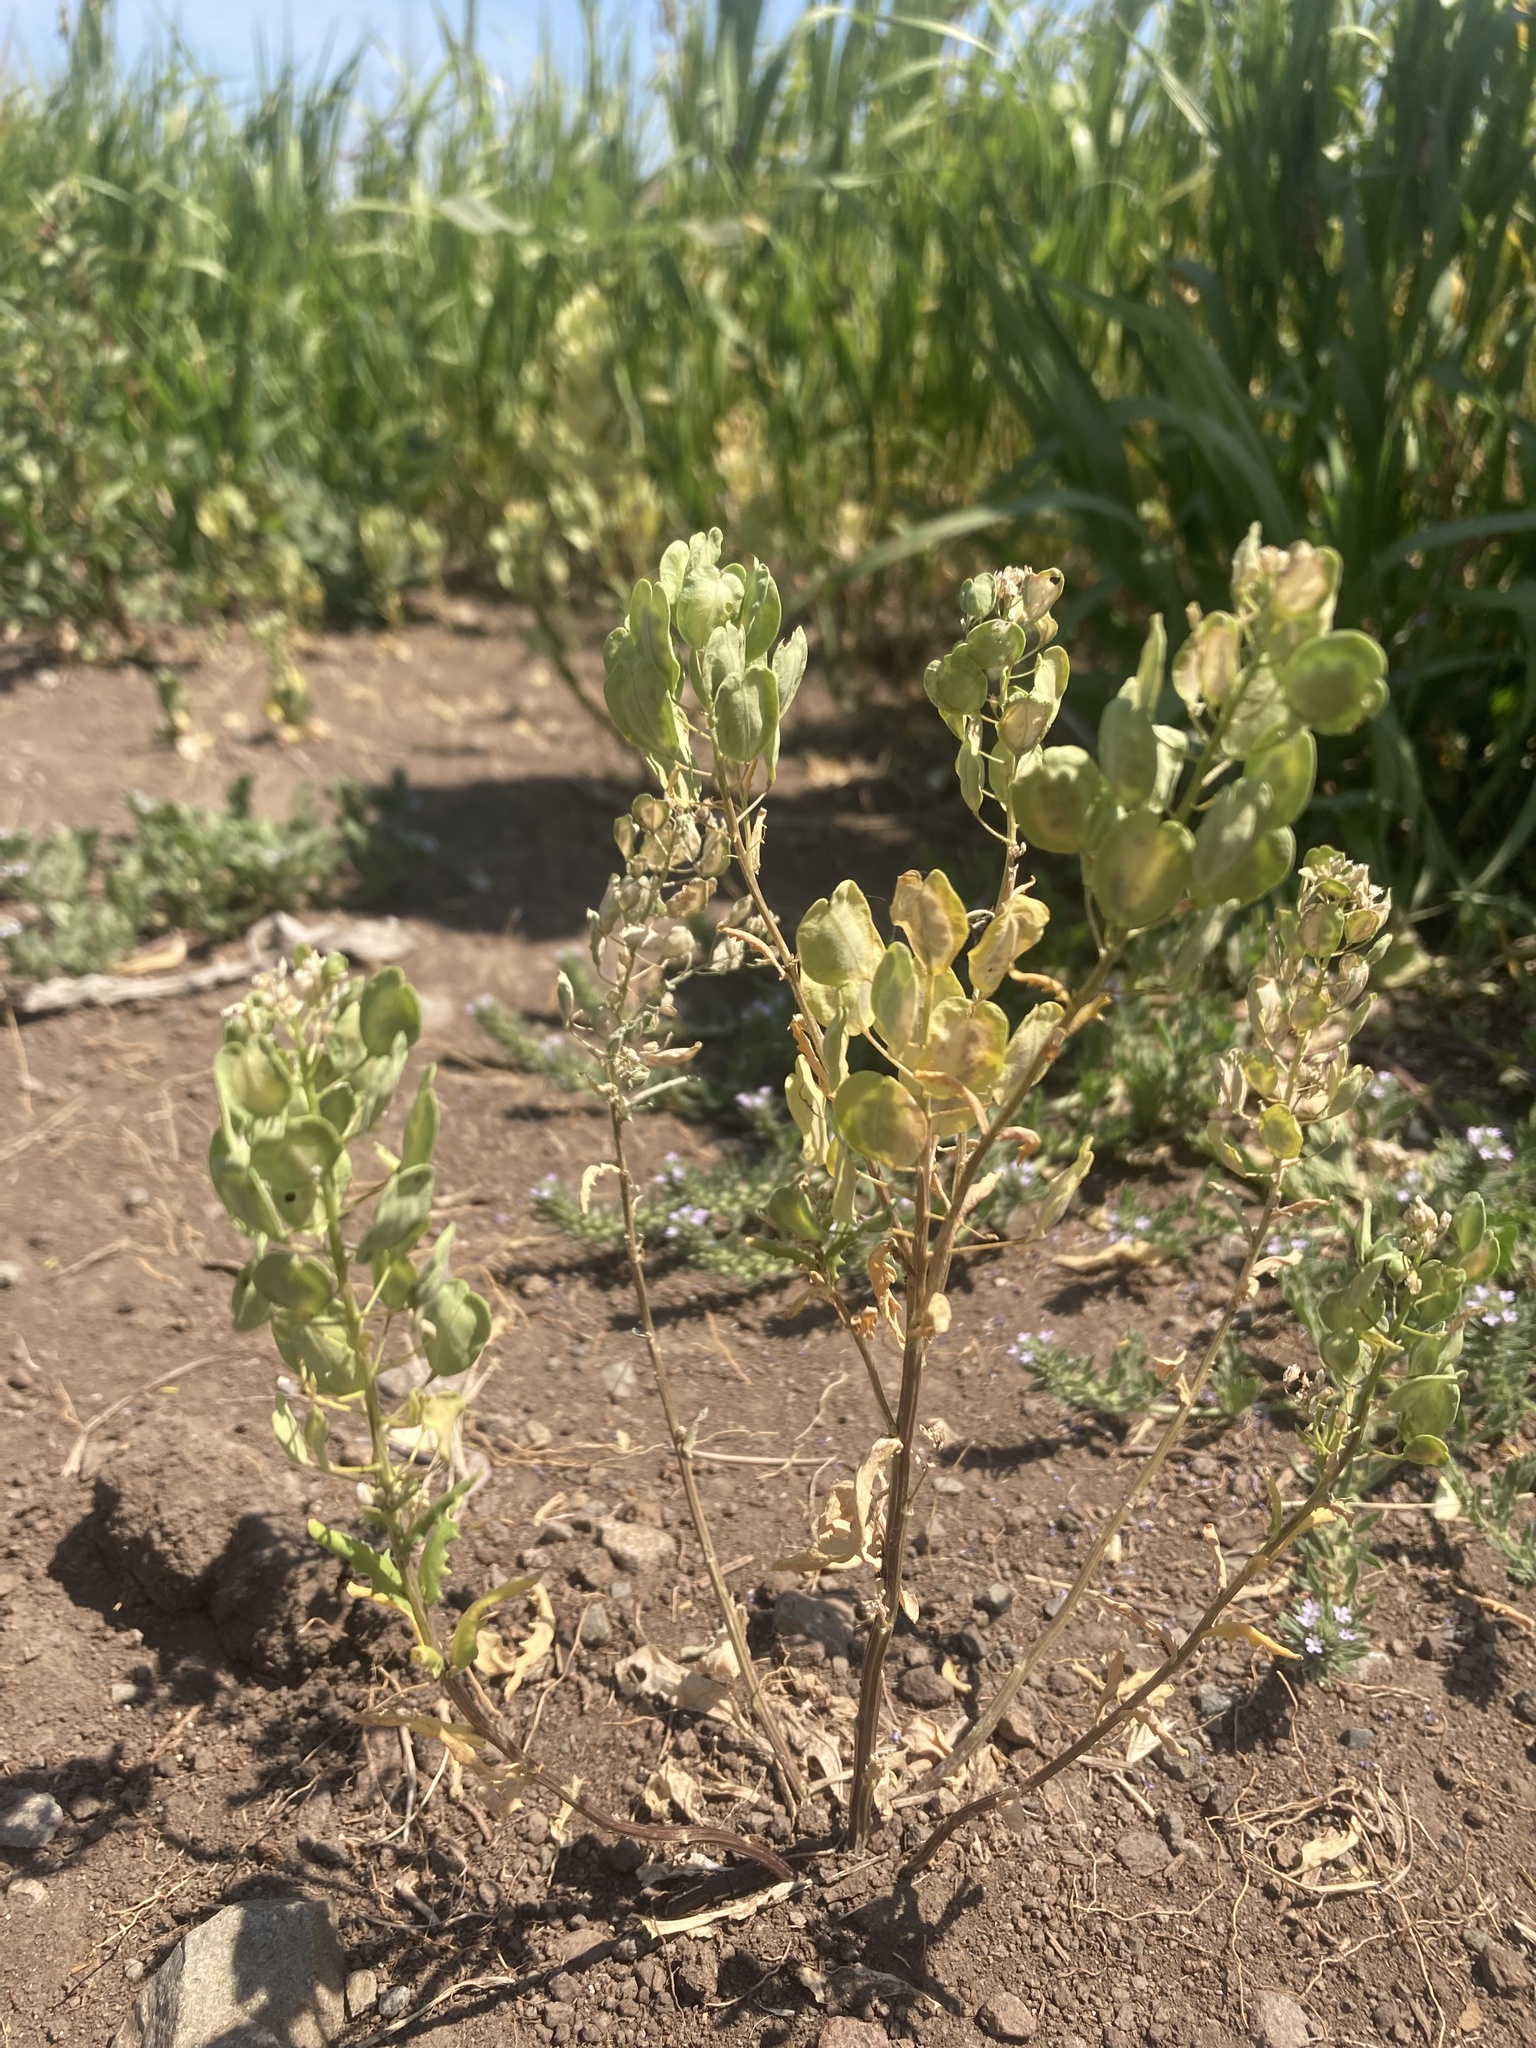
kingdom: Plantae
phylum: Tracheophyta
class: Magnoliopsida
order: Brassicales
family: Brassicaceae
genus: Thlaspi
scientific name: Thlaspi arvense
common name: Field pennycress
